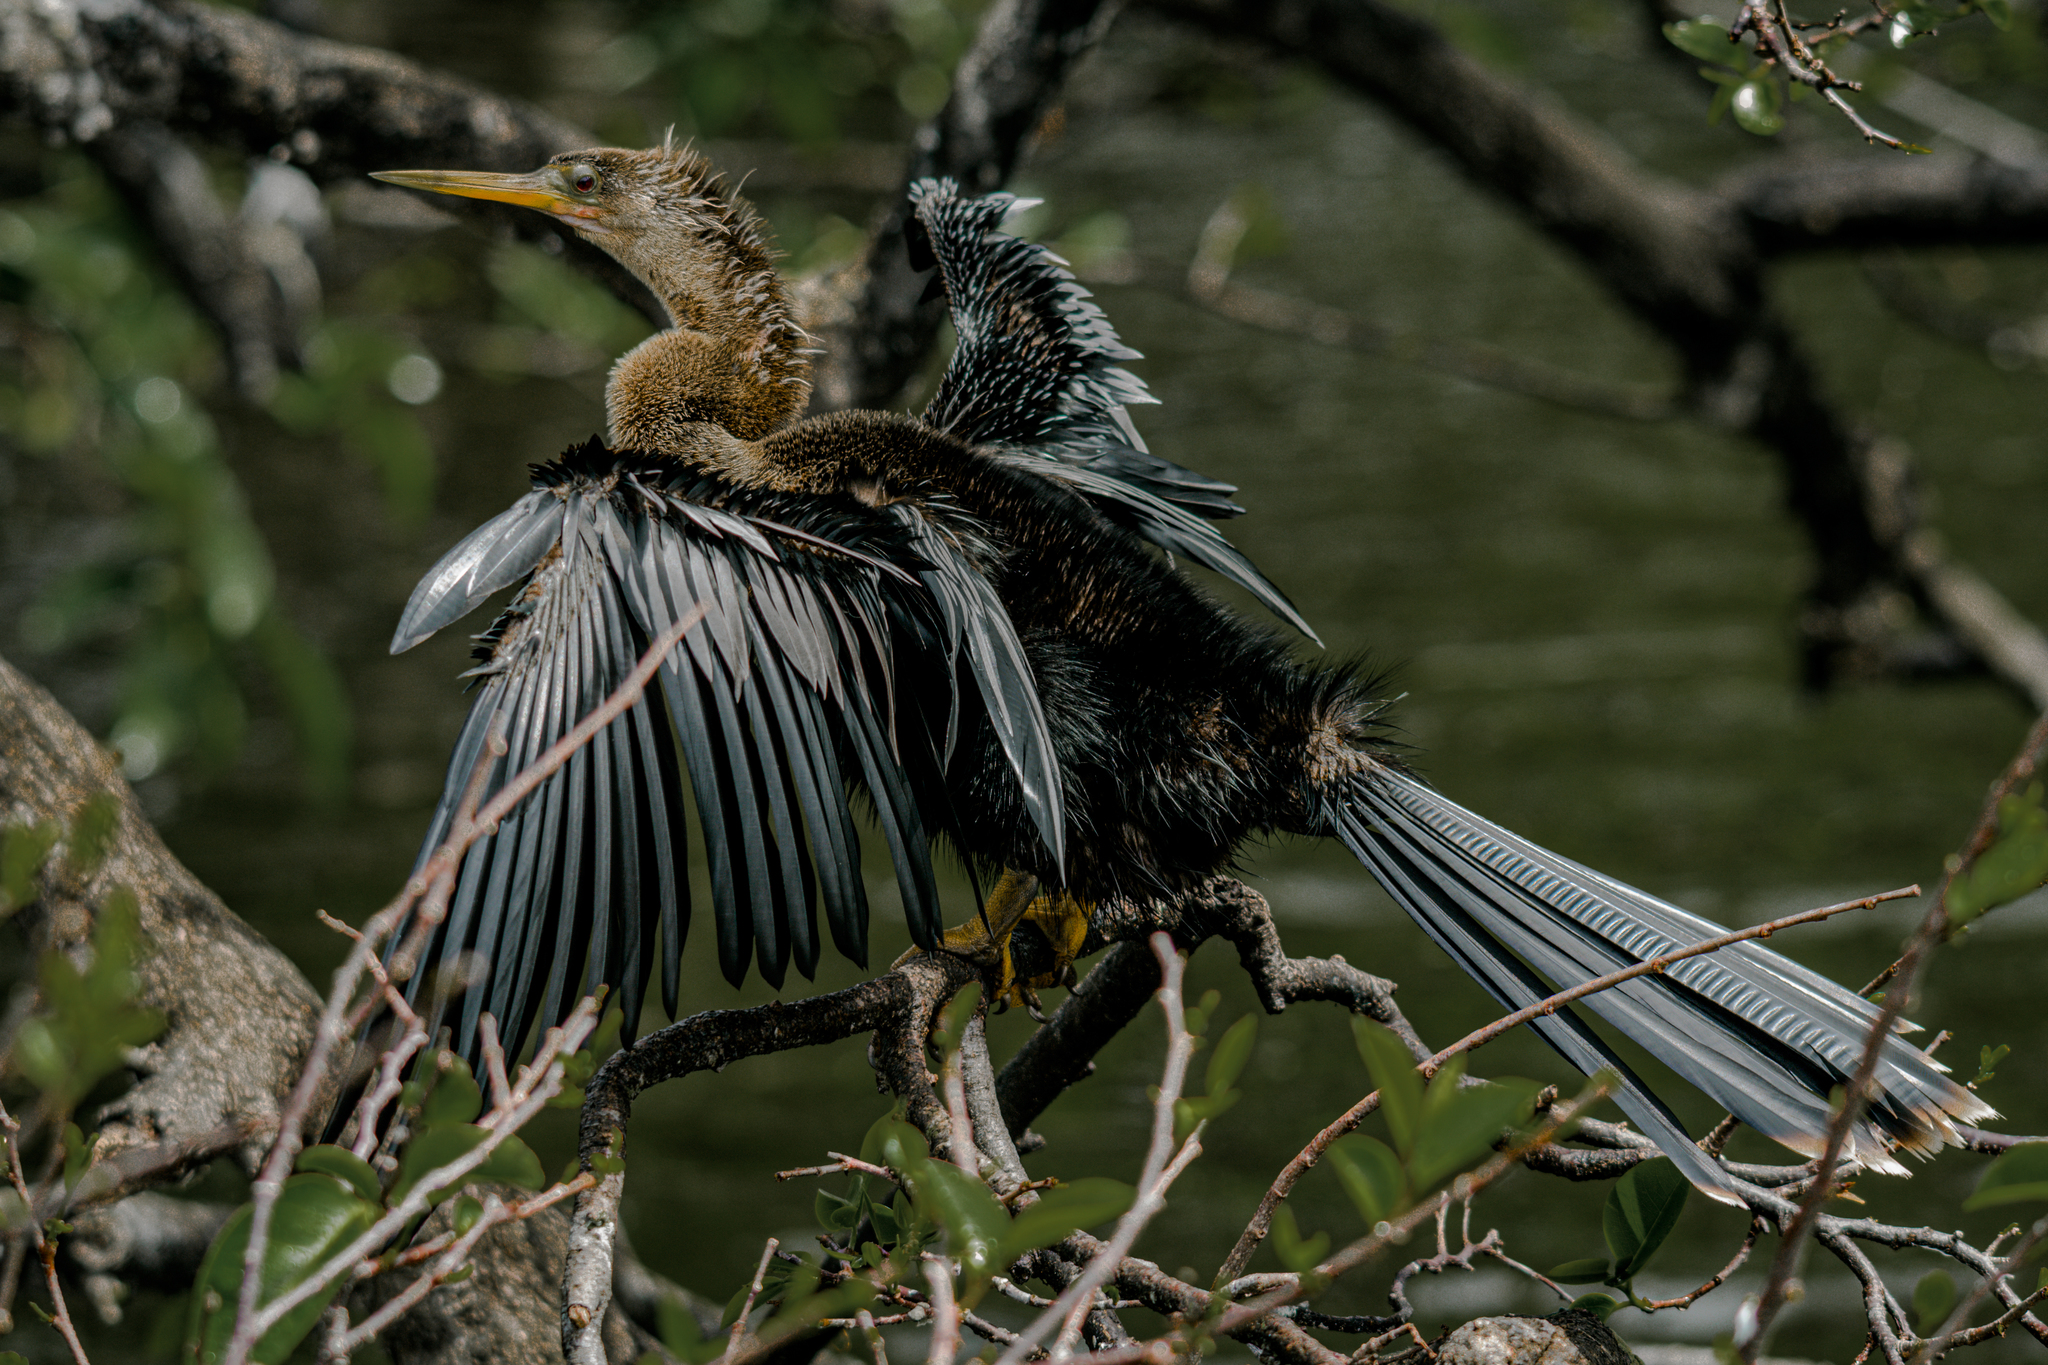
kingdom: Animalia
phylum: Chordata
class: Aves
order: Suliformes
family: Anhingidae
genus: Anhinga
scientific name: Anhinga anhinga
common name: Anhinga
